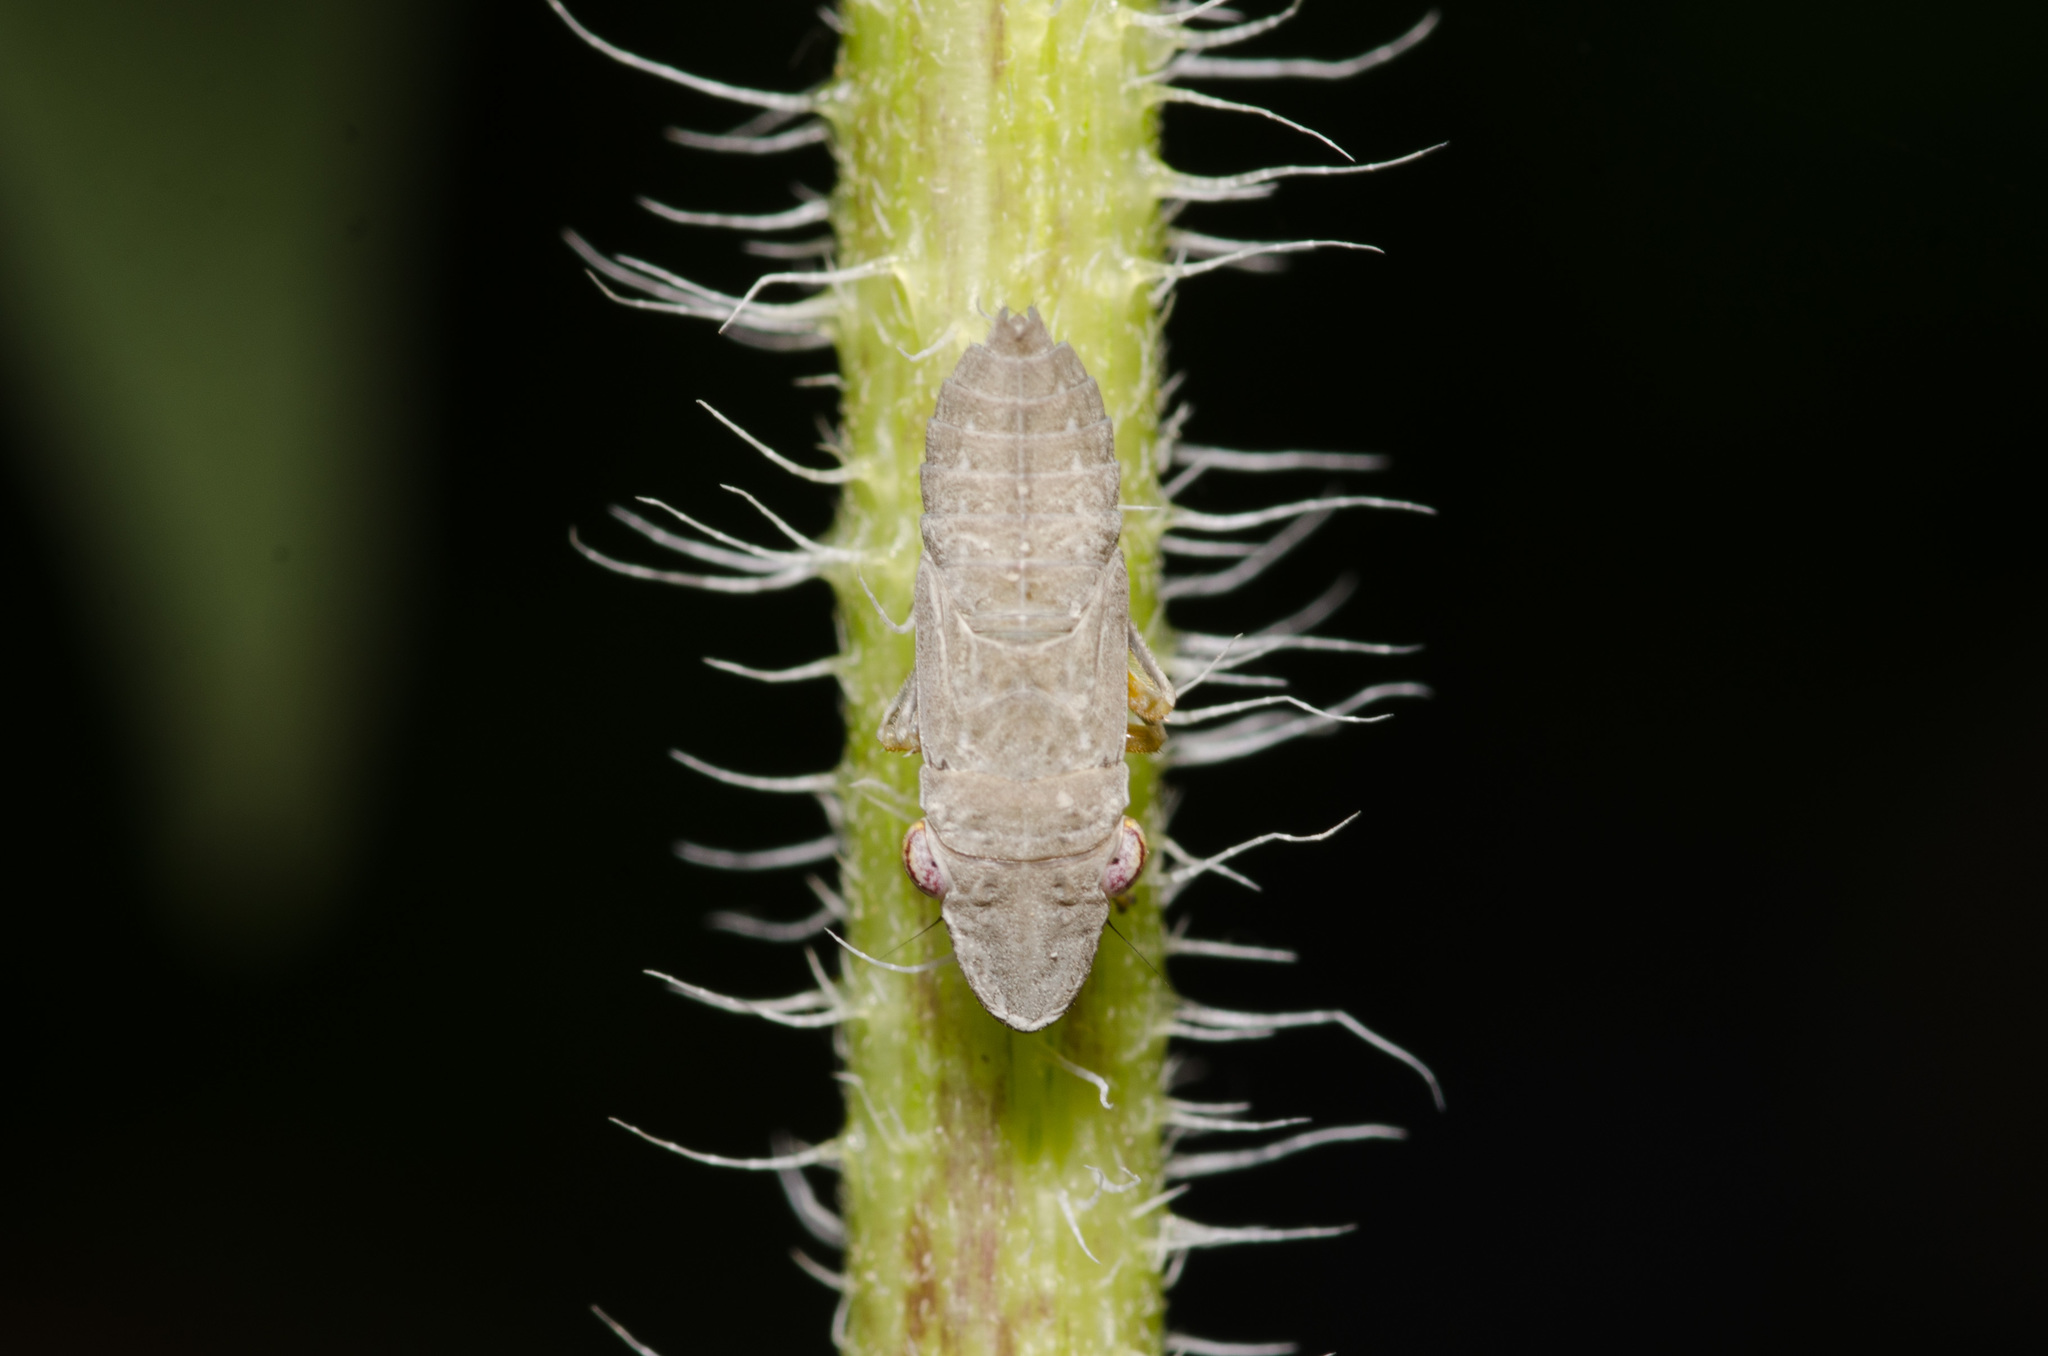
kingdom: Animalia
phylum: Arthropoda
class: Insecta
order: Hemiptera
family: Cicadellidae
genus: Homalodisca
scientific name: Homalodisca vitripennis
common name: Glassy-winged sharpshooter
